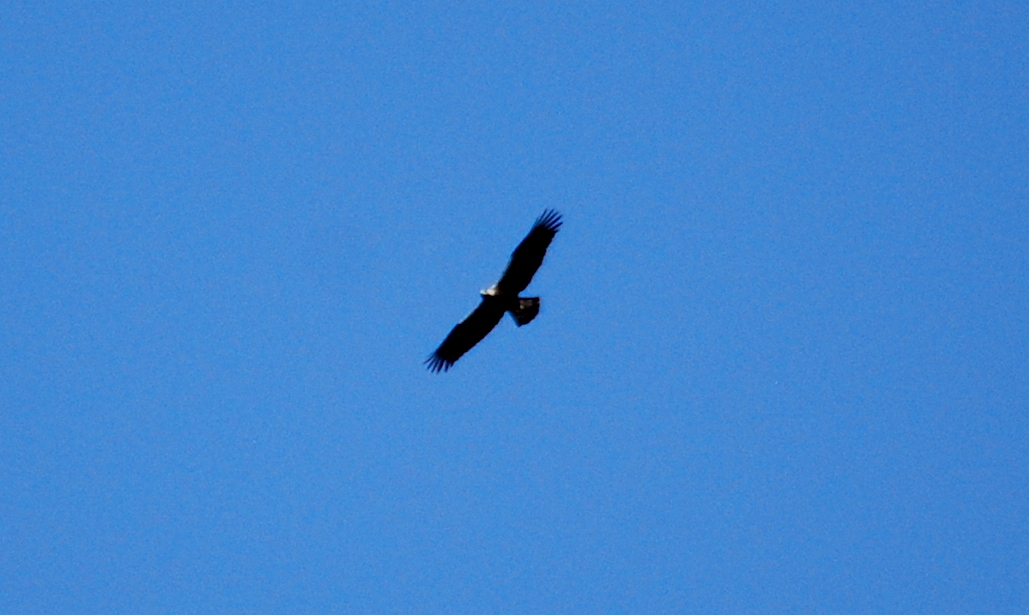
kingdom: Animalia
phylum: Chordata
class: Aves
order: Accipitriformes
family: Accipitridae
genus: Aquila
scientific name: Aquila adalberti
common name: Spanish imperial eagle
